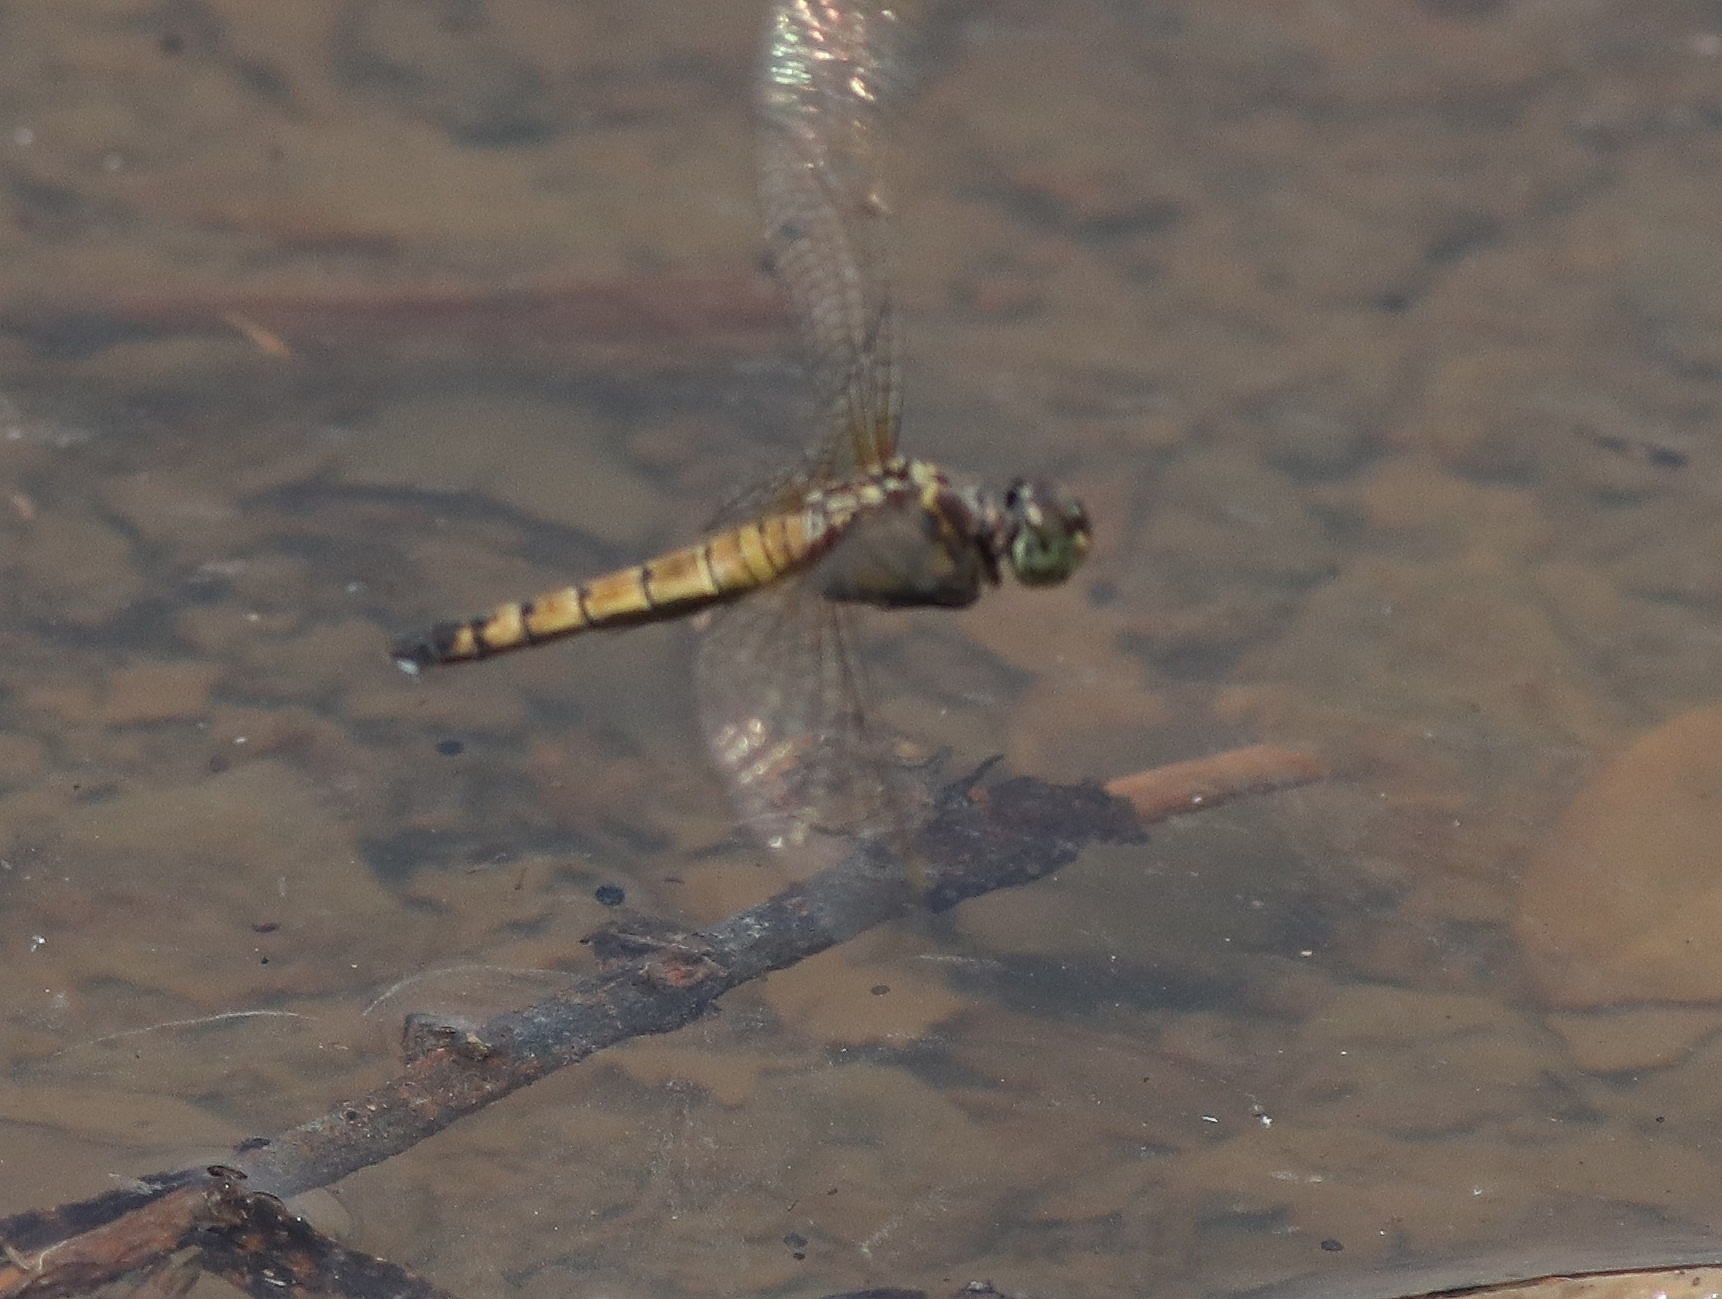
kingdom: Animalia
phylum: Arthropoda
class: Insecta
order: Odonata
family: Libellulidae
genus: Brachydiplax
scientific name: Brachydiplax chalybea
